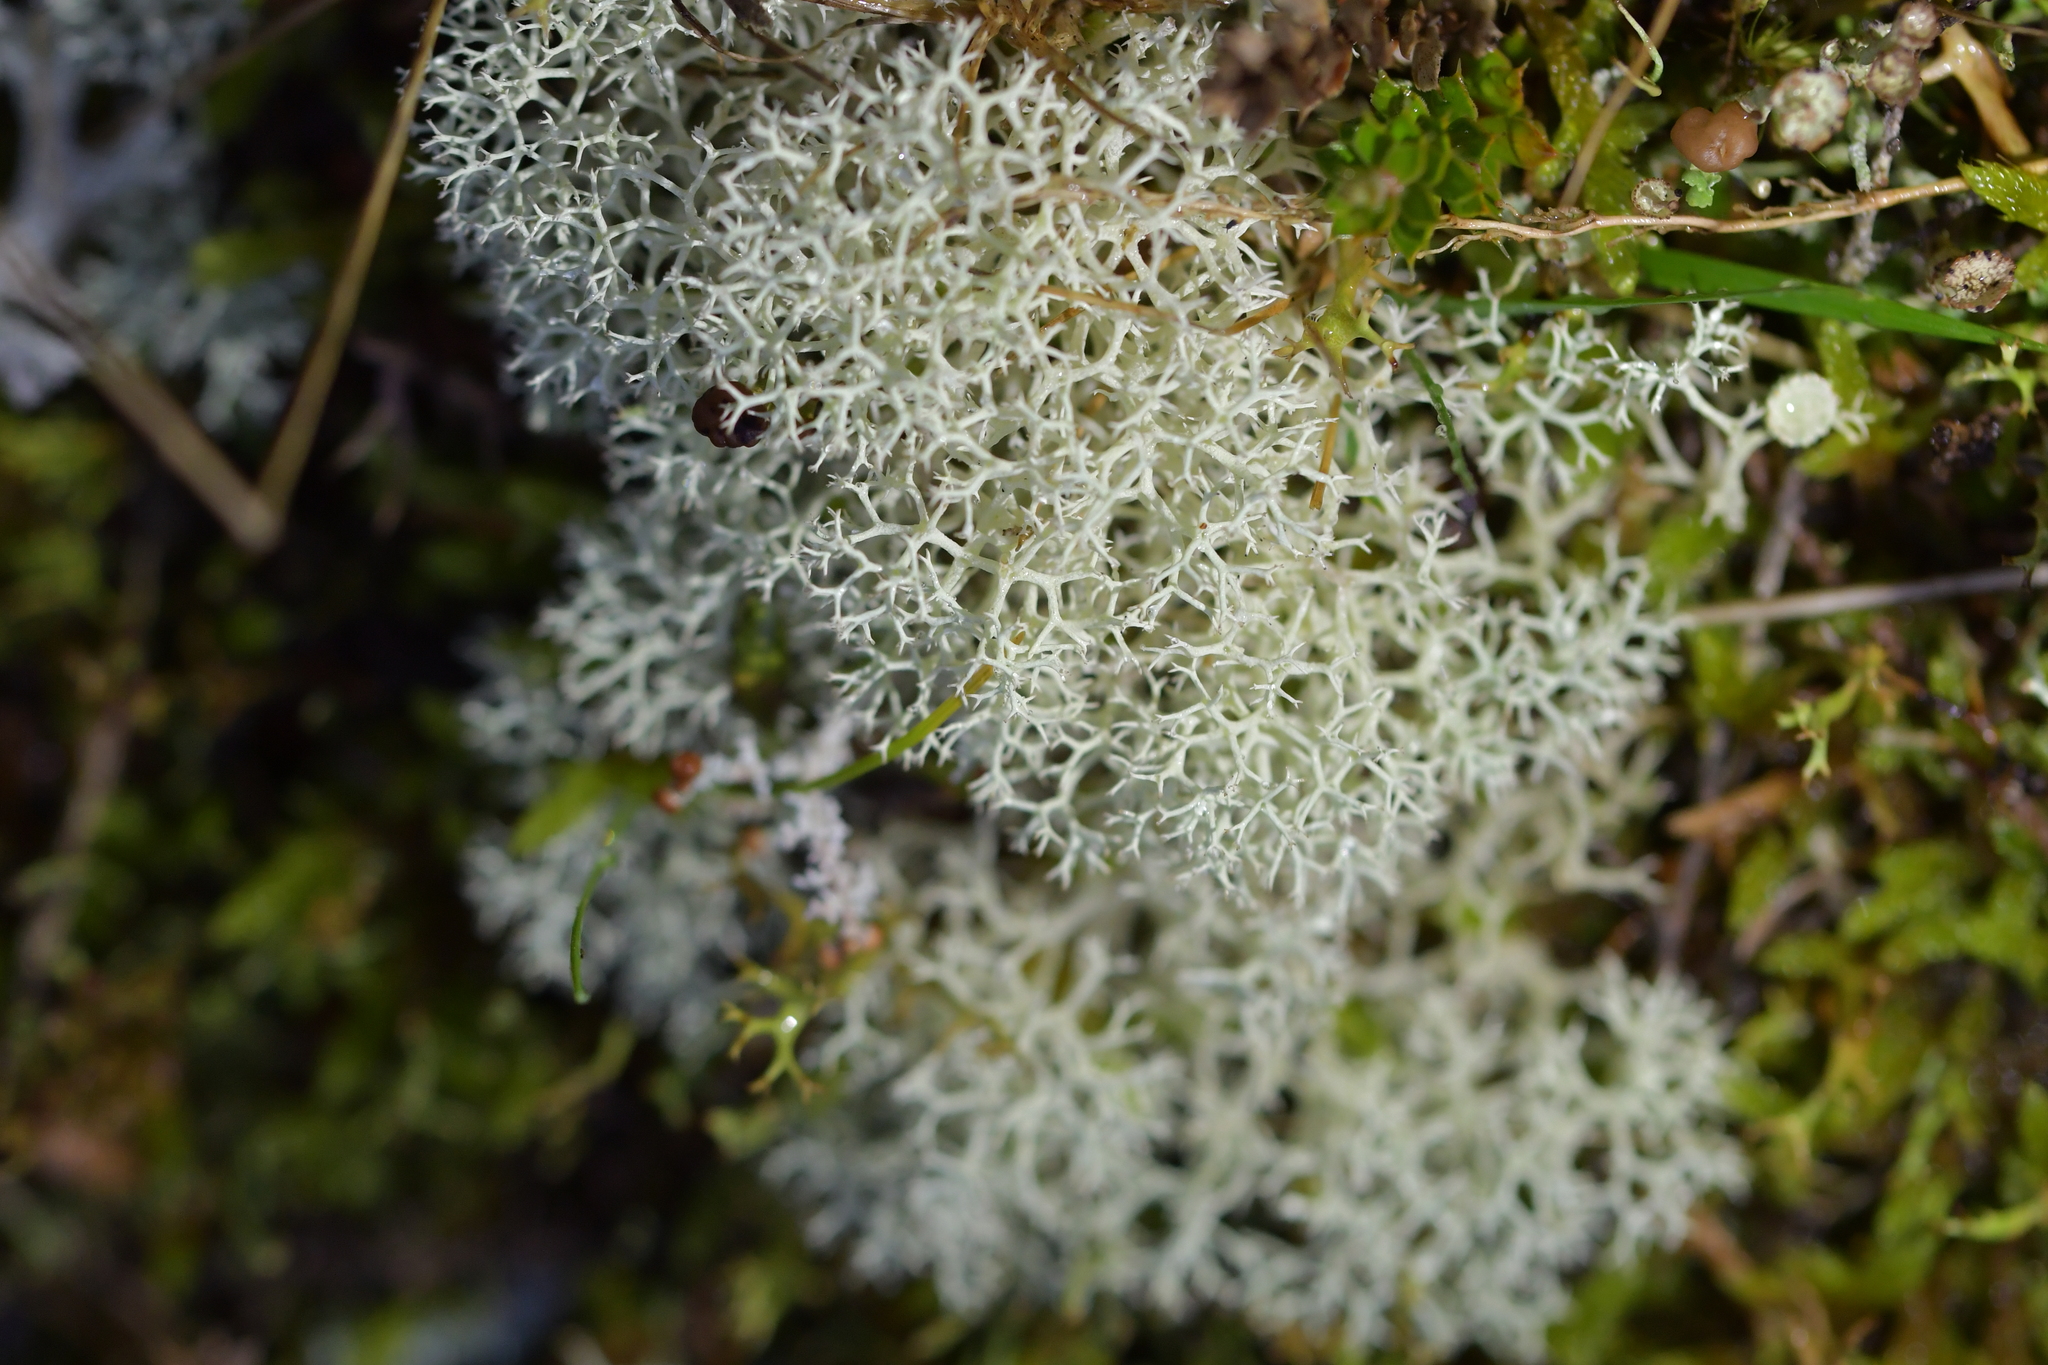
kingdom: Fungi
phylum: Ascomycota
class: Lecanoromycetes
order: Lecanorales
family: Cladoniaceae
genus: Cladonia
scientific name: Cladonia confusa
